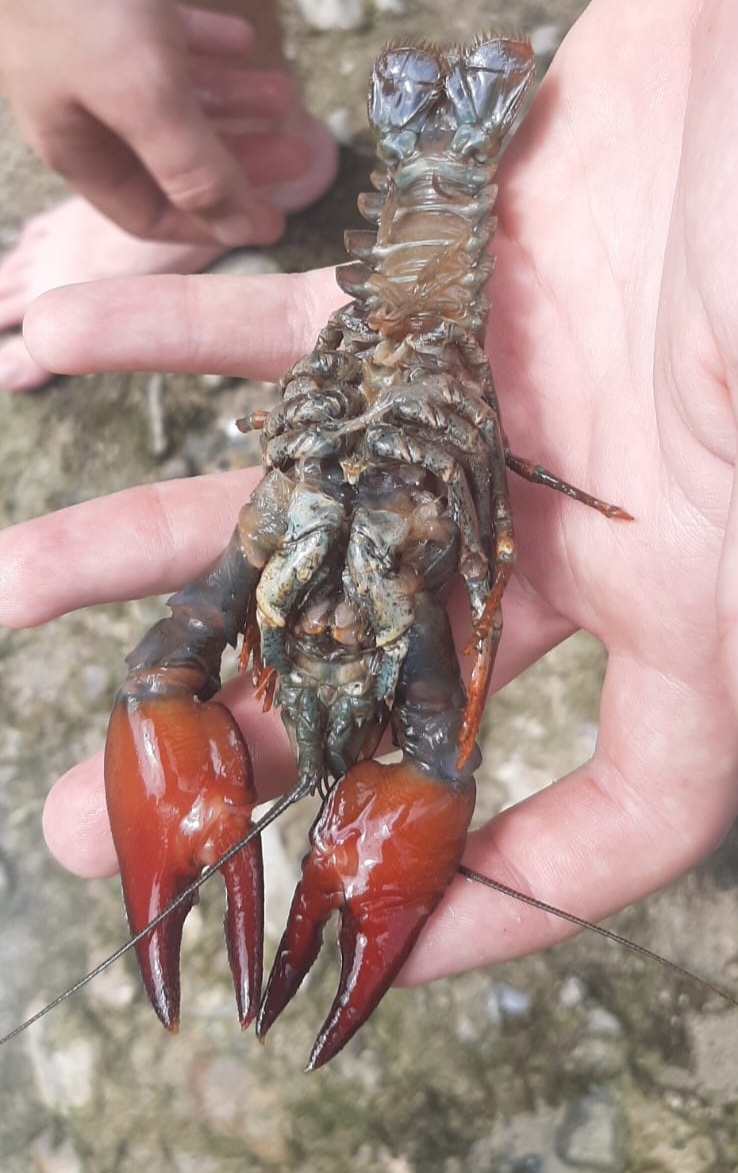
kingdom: Animalia
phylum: Arthropoda
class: Malacostraca
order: Decapoda
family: Astacidae
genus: Pacifastacus
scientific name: Pacifastacus leniusculus
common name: Signal crayfish
